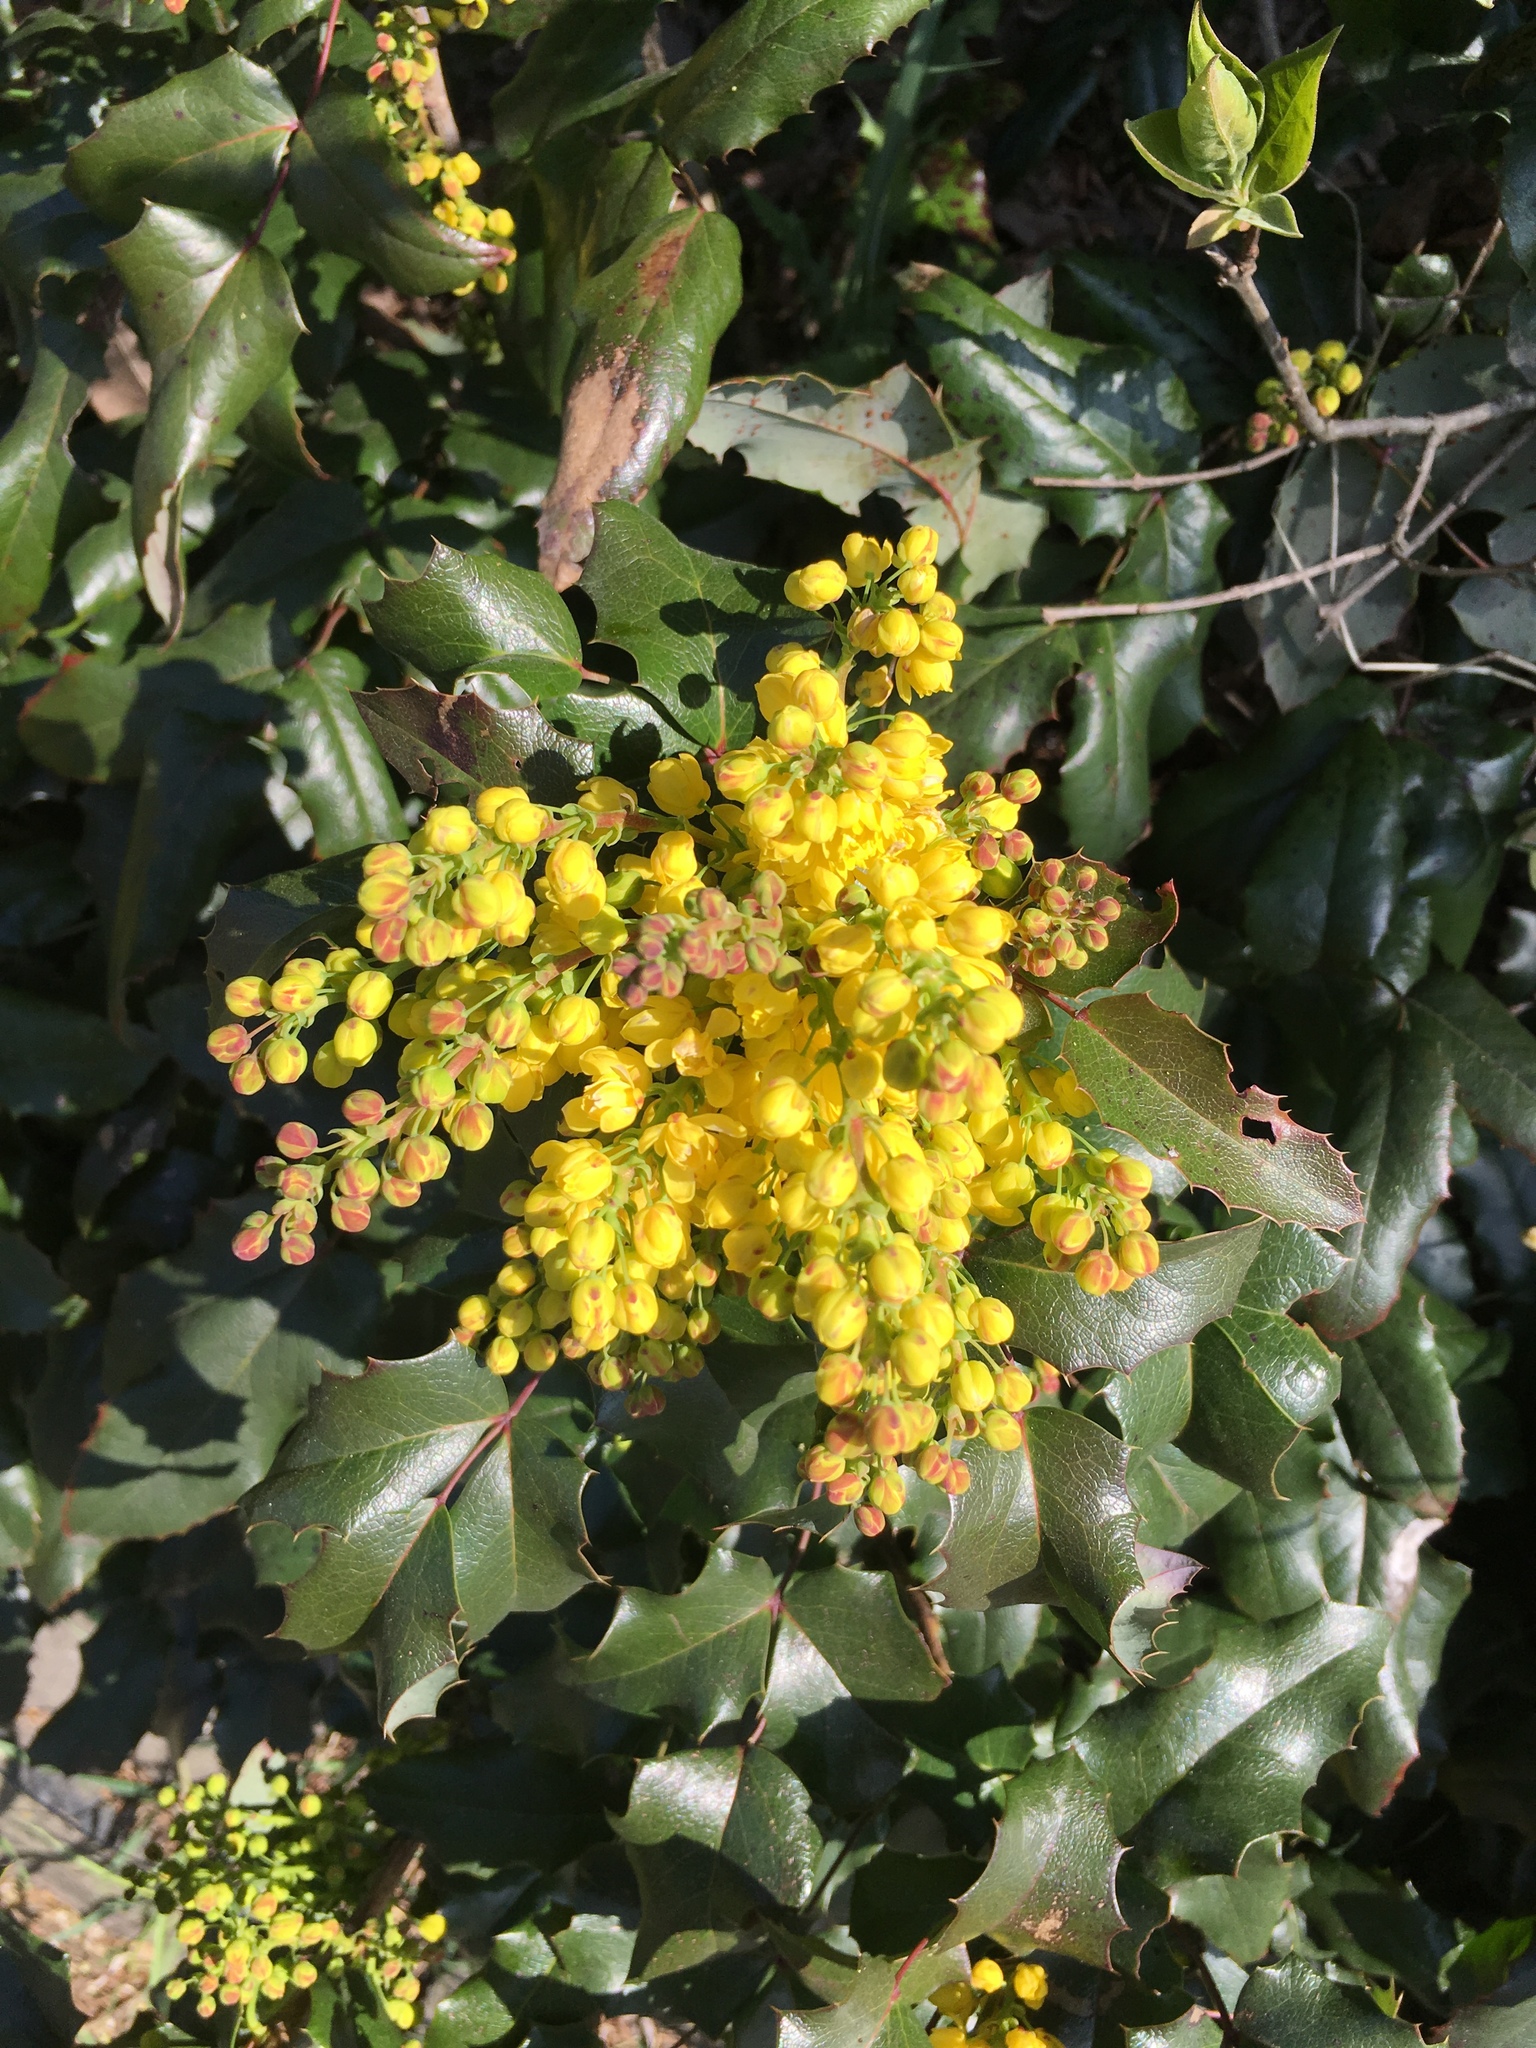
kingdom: Plantae
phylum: Tracheophyta
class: Magnoliopsida
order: Ranunculales
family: Berberidaceae
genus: Mahonia
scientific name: Mahonia aquifolium
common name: Oregon-grape
